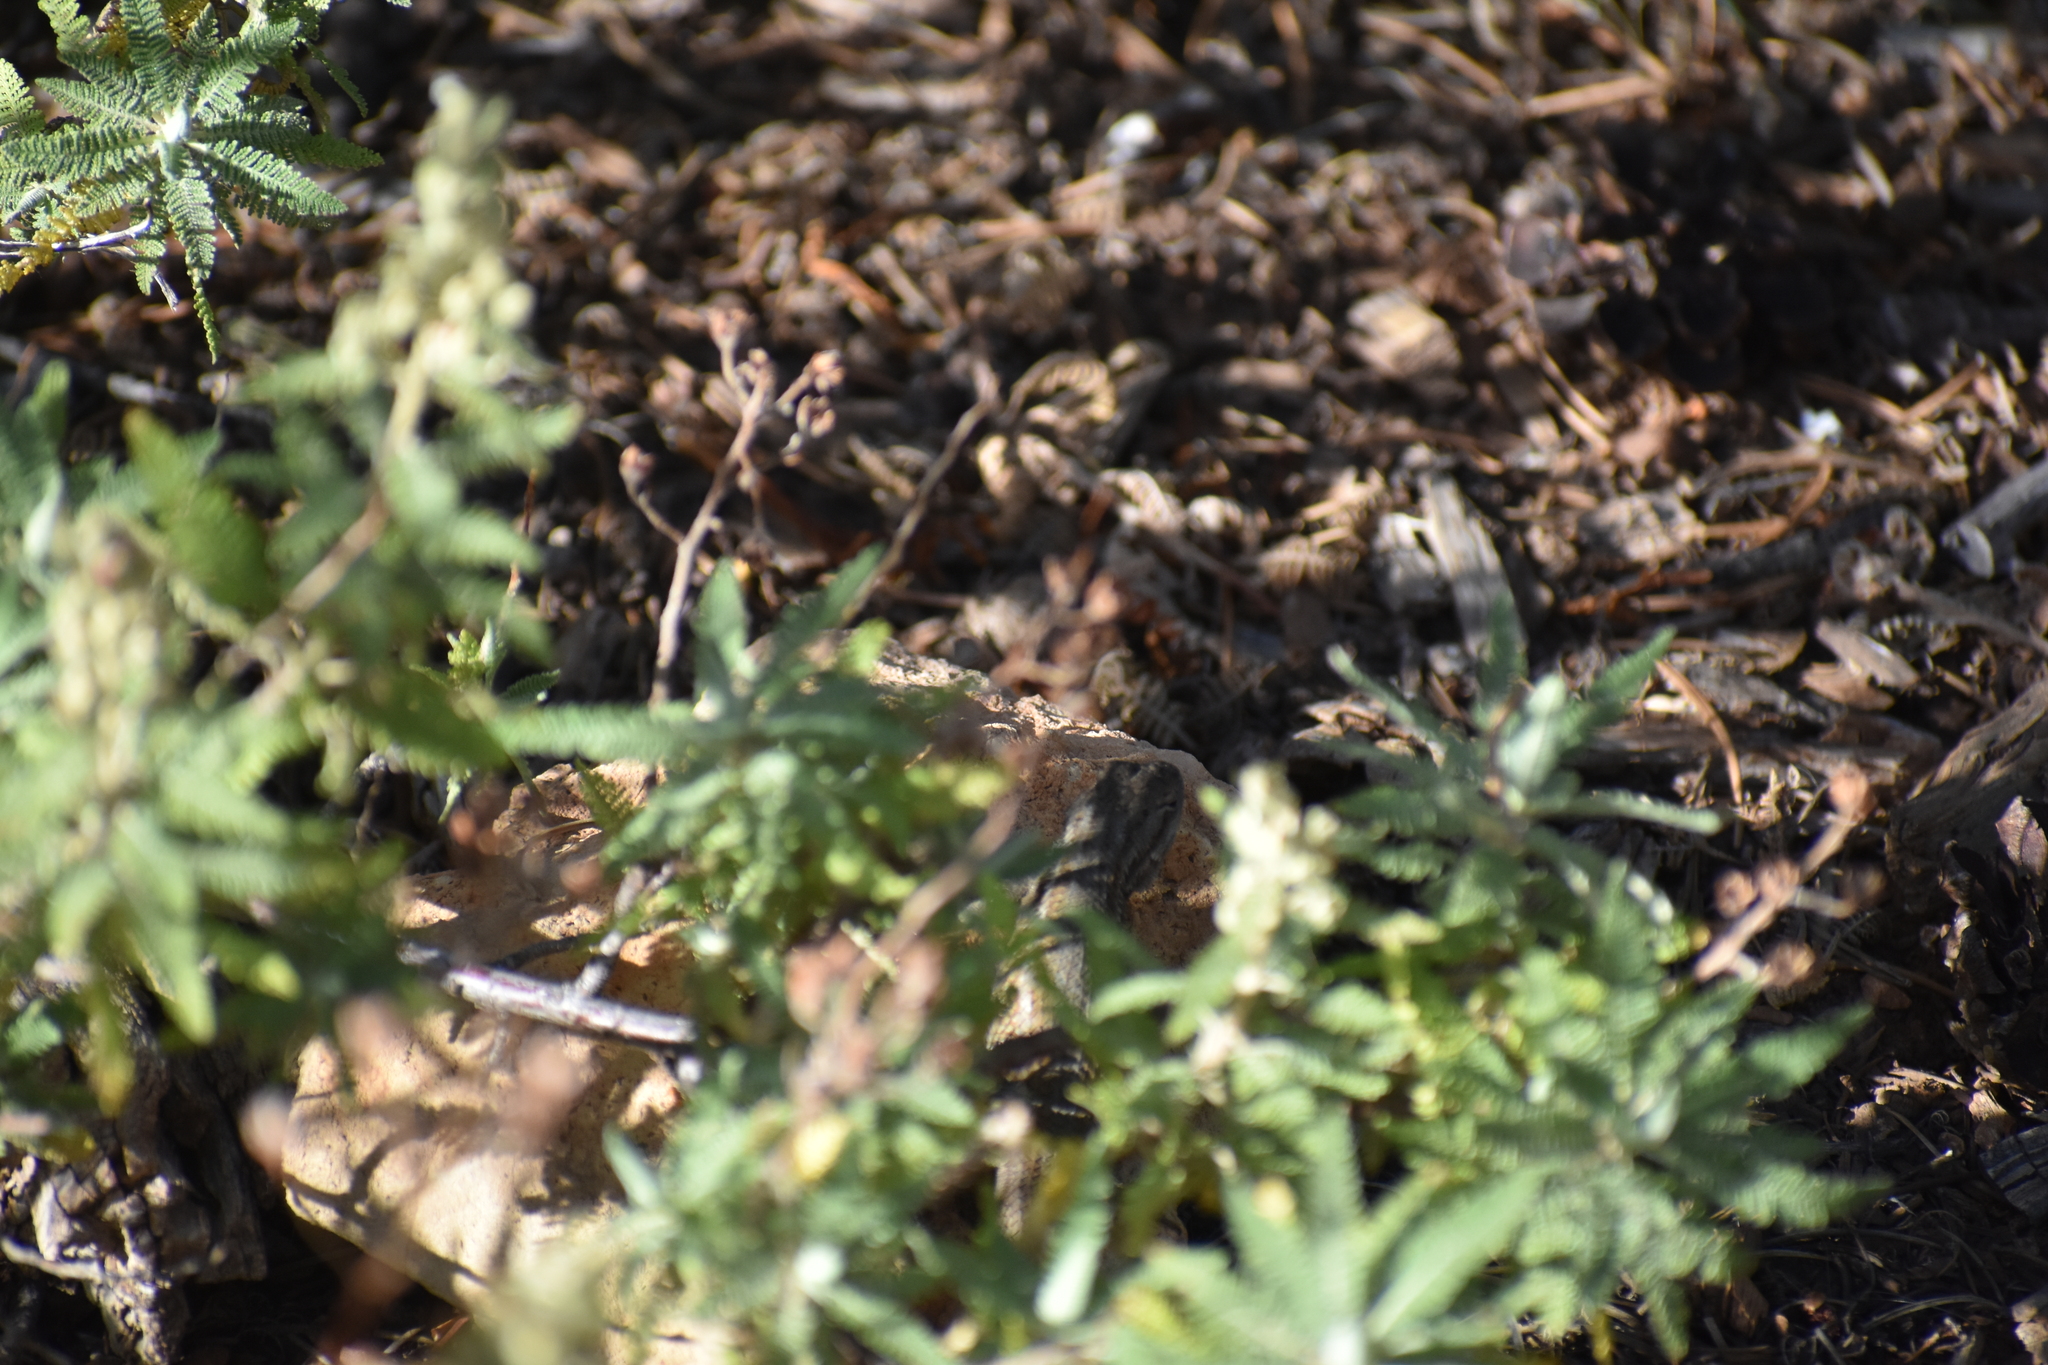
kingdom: Animalia
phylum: Chordata
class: Squamata
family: Phrynosomatidae
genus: Sceloporus
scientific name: Sceloporus tristichus
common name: Plateau fence lizard
